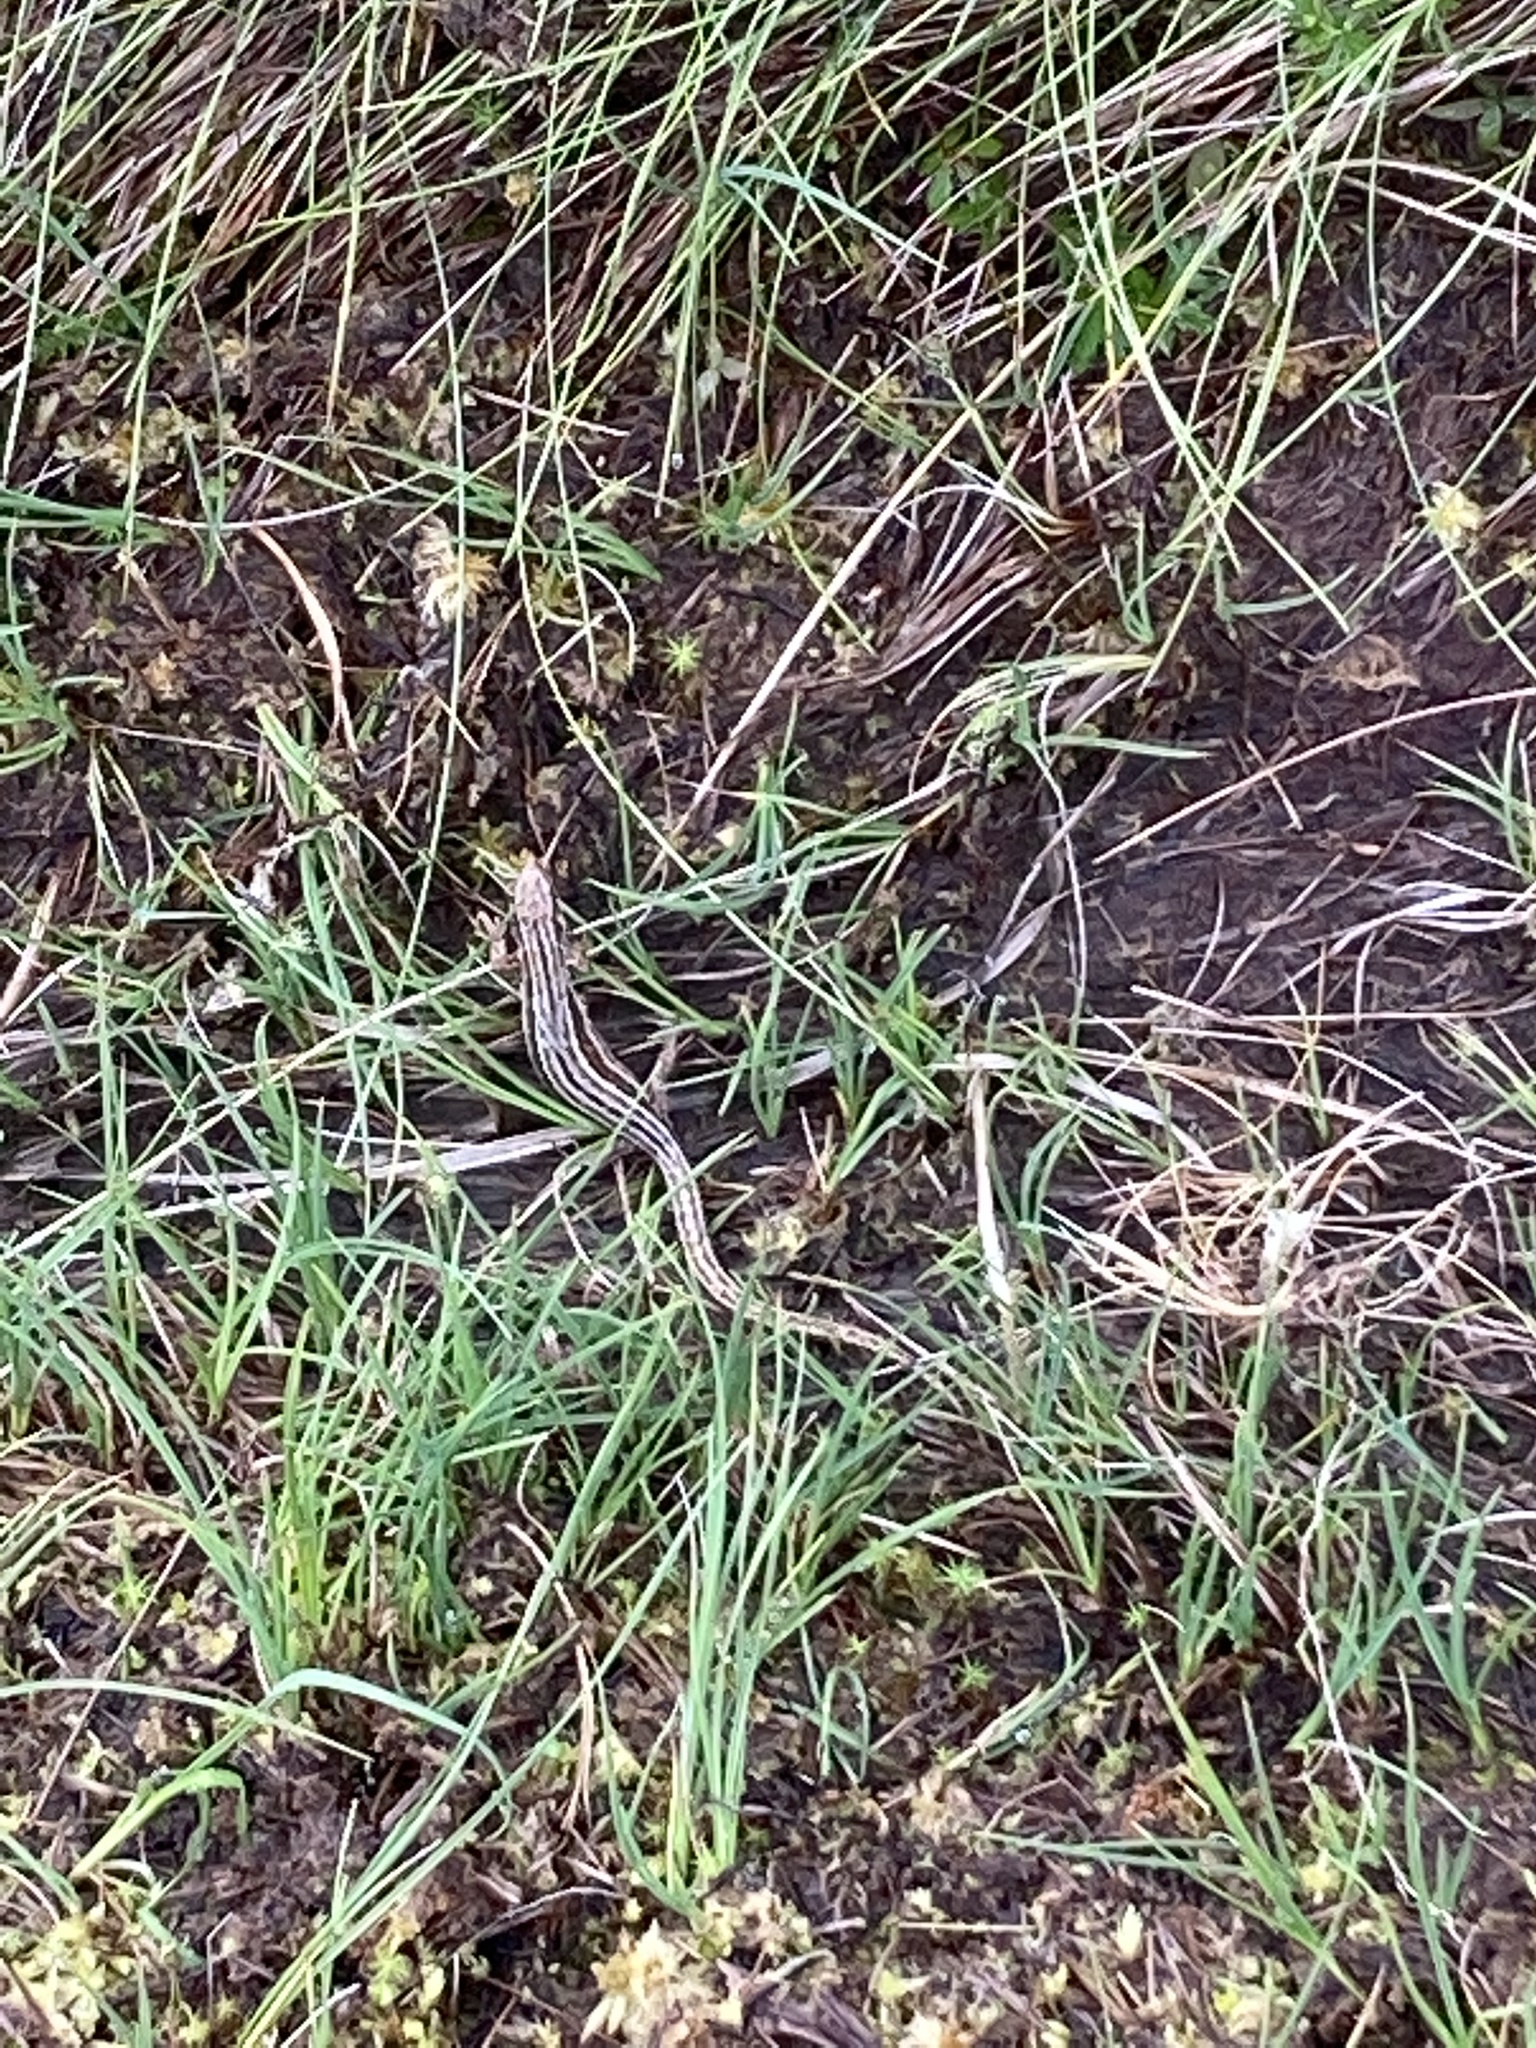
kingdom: Animalia
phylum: Chordata
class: Squamata
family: Lacertidae
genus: Zootoca
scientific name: Zootoca vivipara
